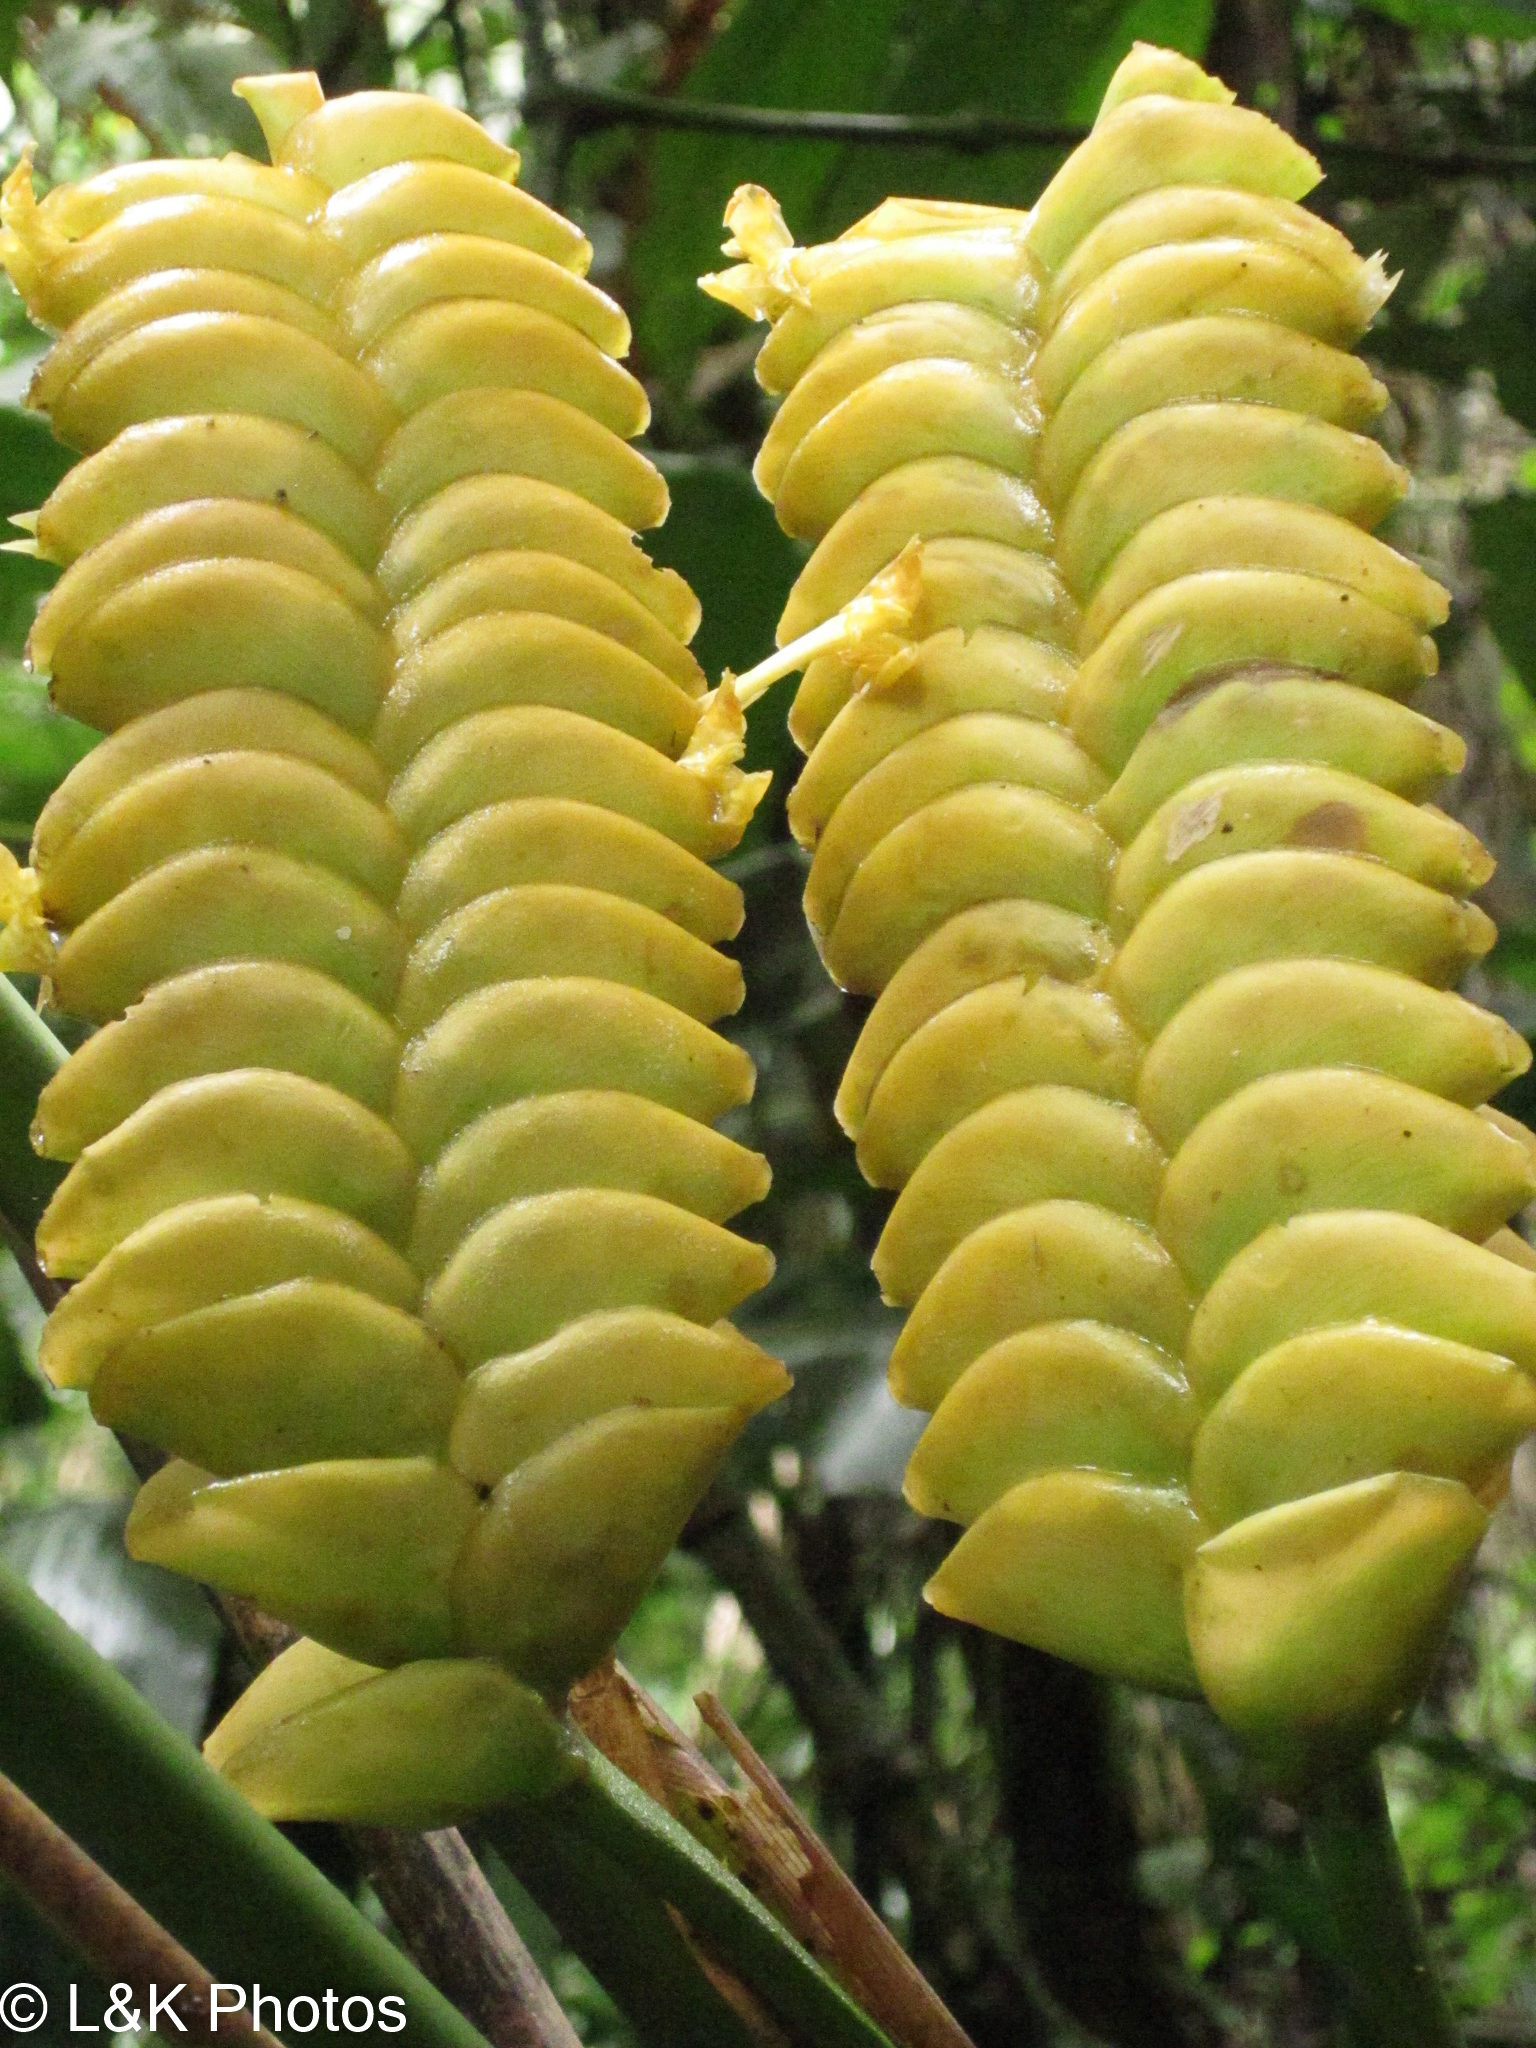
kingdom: Plantae
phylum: Tracheophyta
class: Liliopsida
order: Zingiberales
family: Marantaceae
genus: Calathea
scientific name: Calathea crotalifera
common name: Rattlesnake plant
